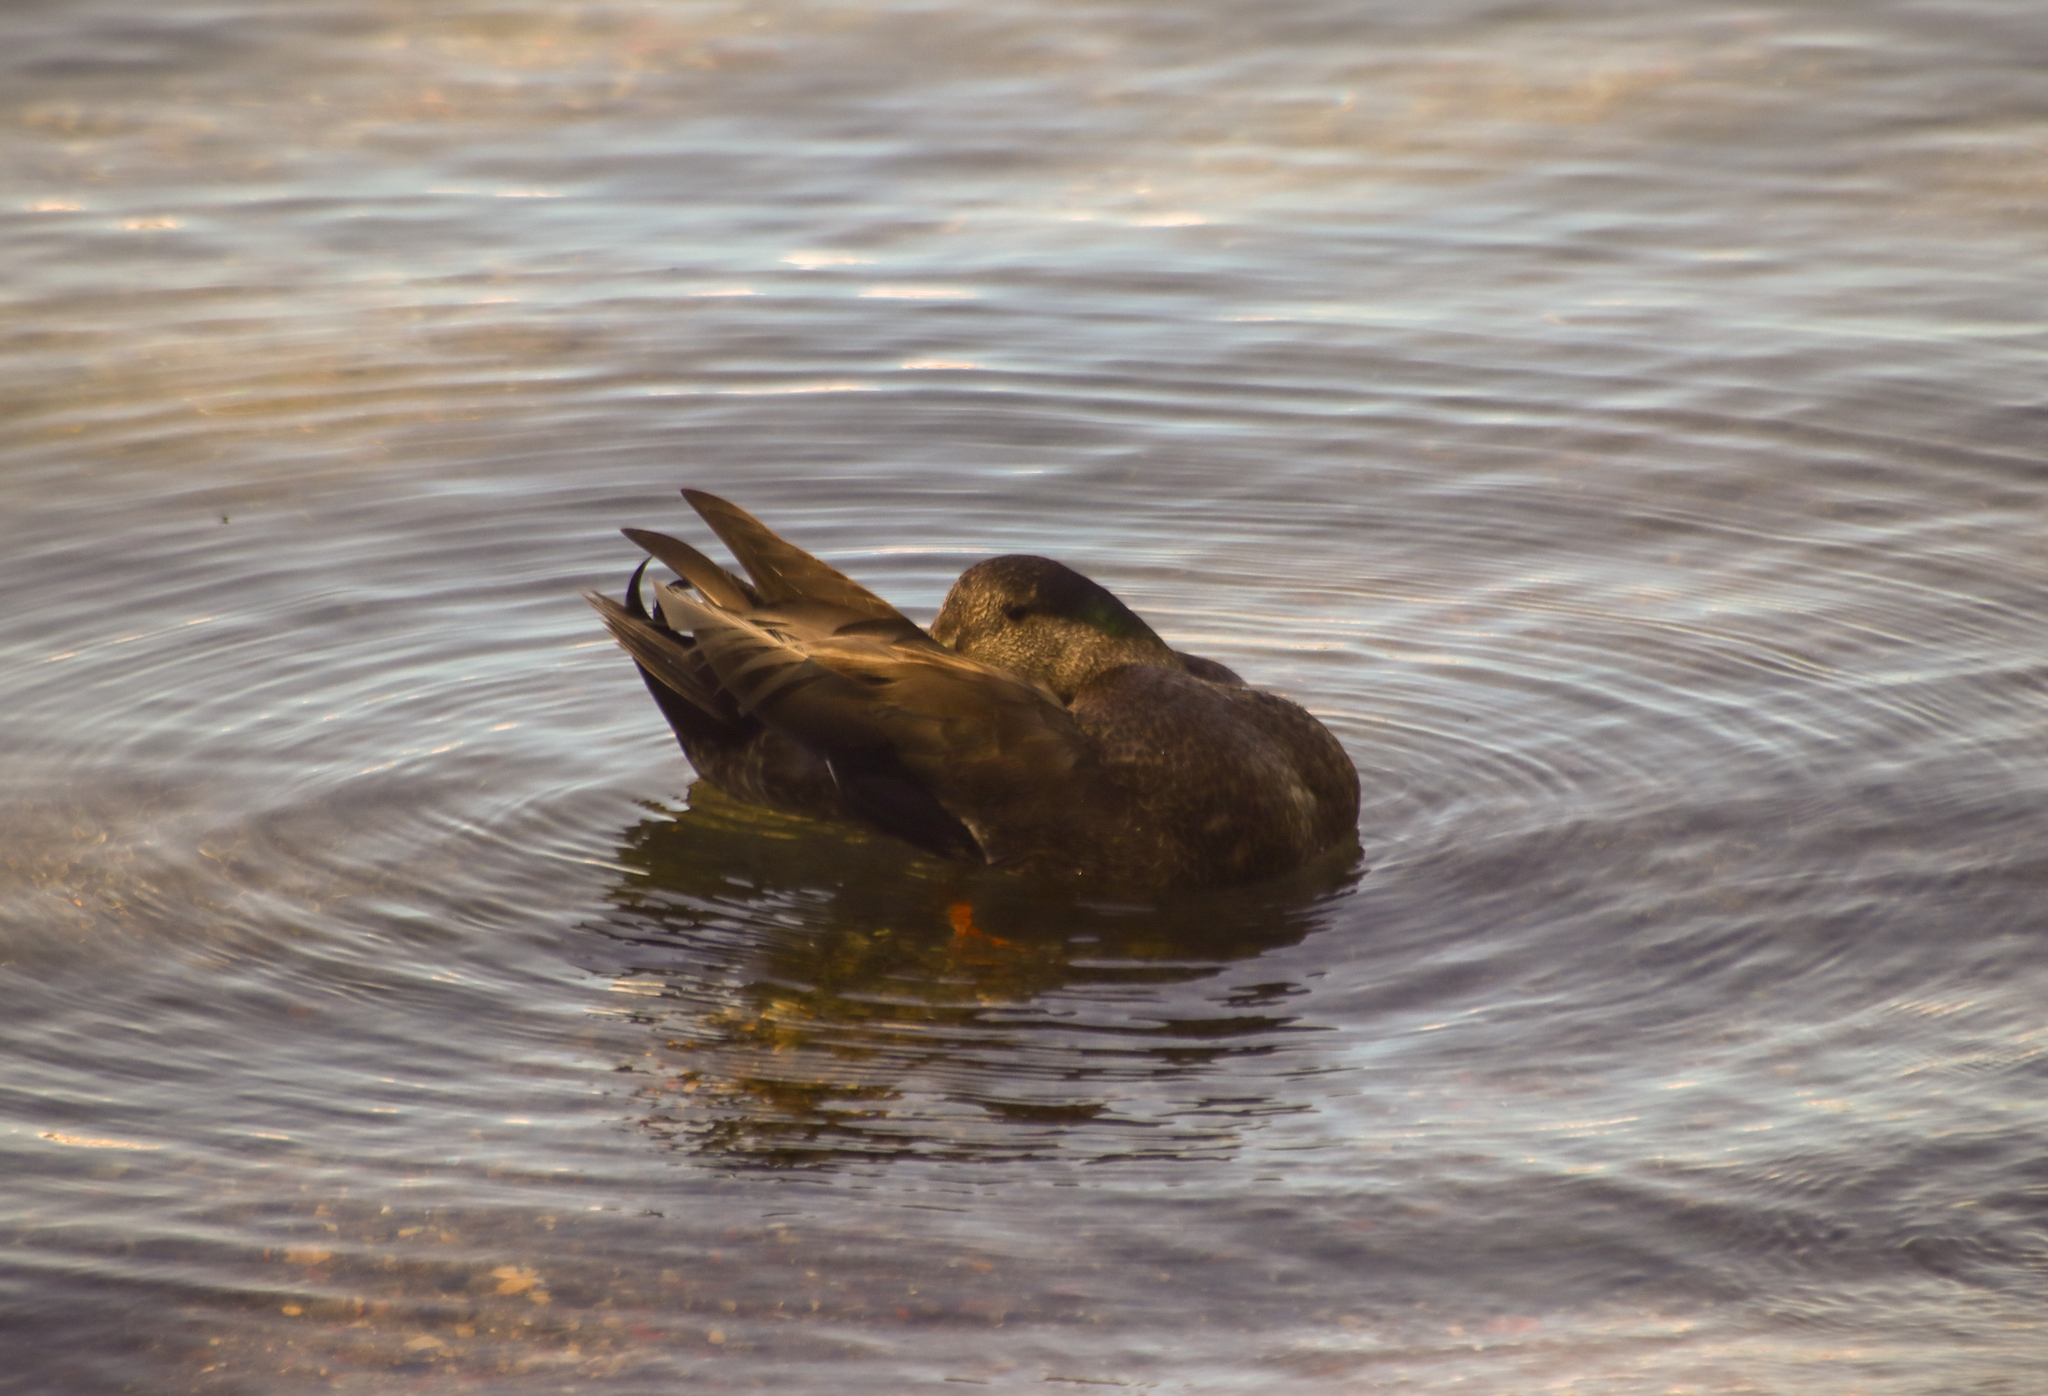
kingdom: Animalia
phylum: Chordata
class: Aves
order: Anseriformes
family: Anatidae
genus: Anas
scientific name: Anas platyrhynchos
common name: Mallard
